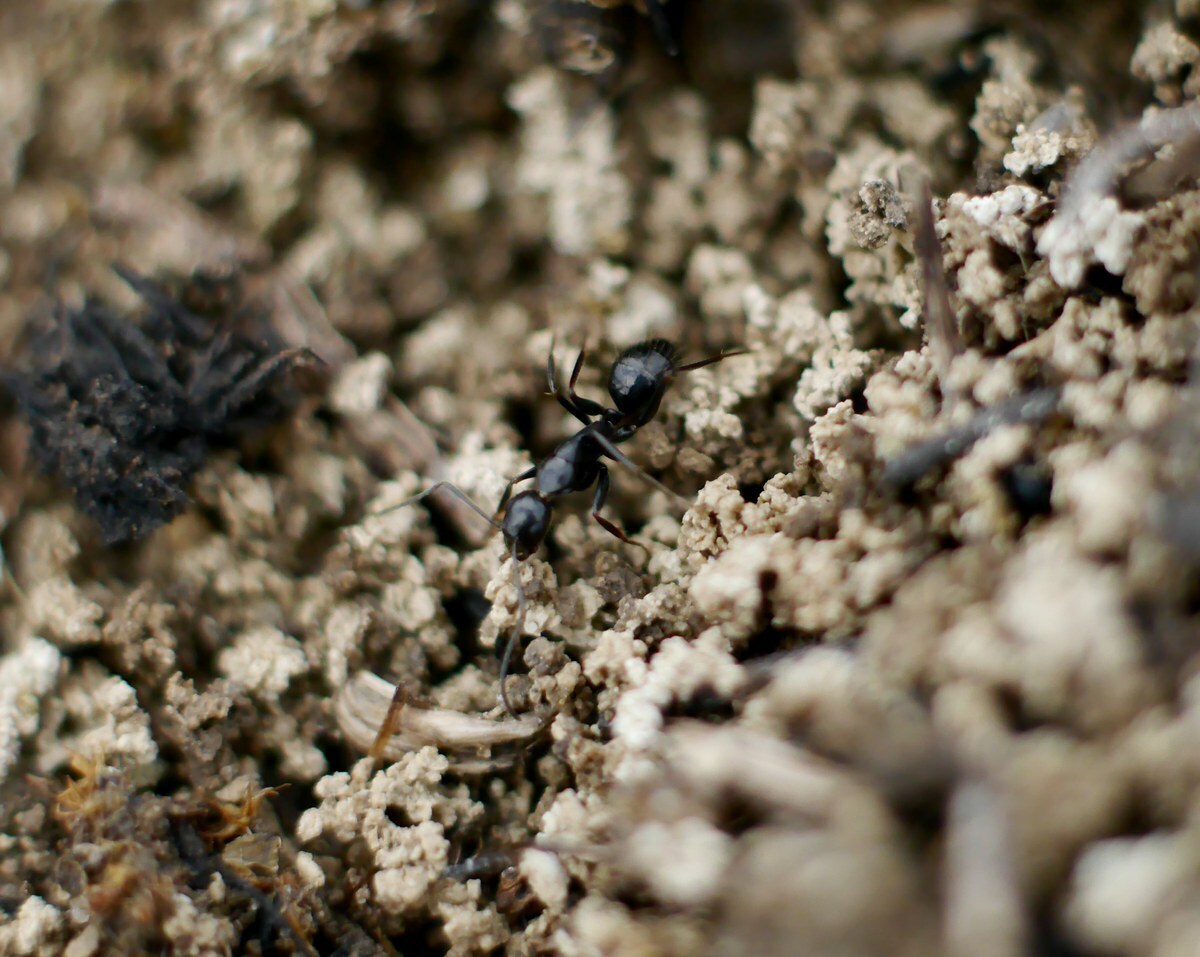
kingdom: Animalia
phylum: Arthropoda
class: Insecta
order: Hymenoptera
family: Formicidae
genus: Camponotus
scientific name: Camponotus aethiops
